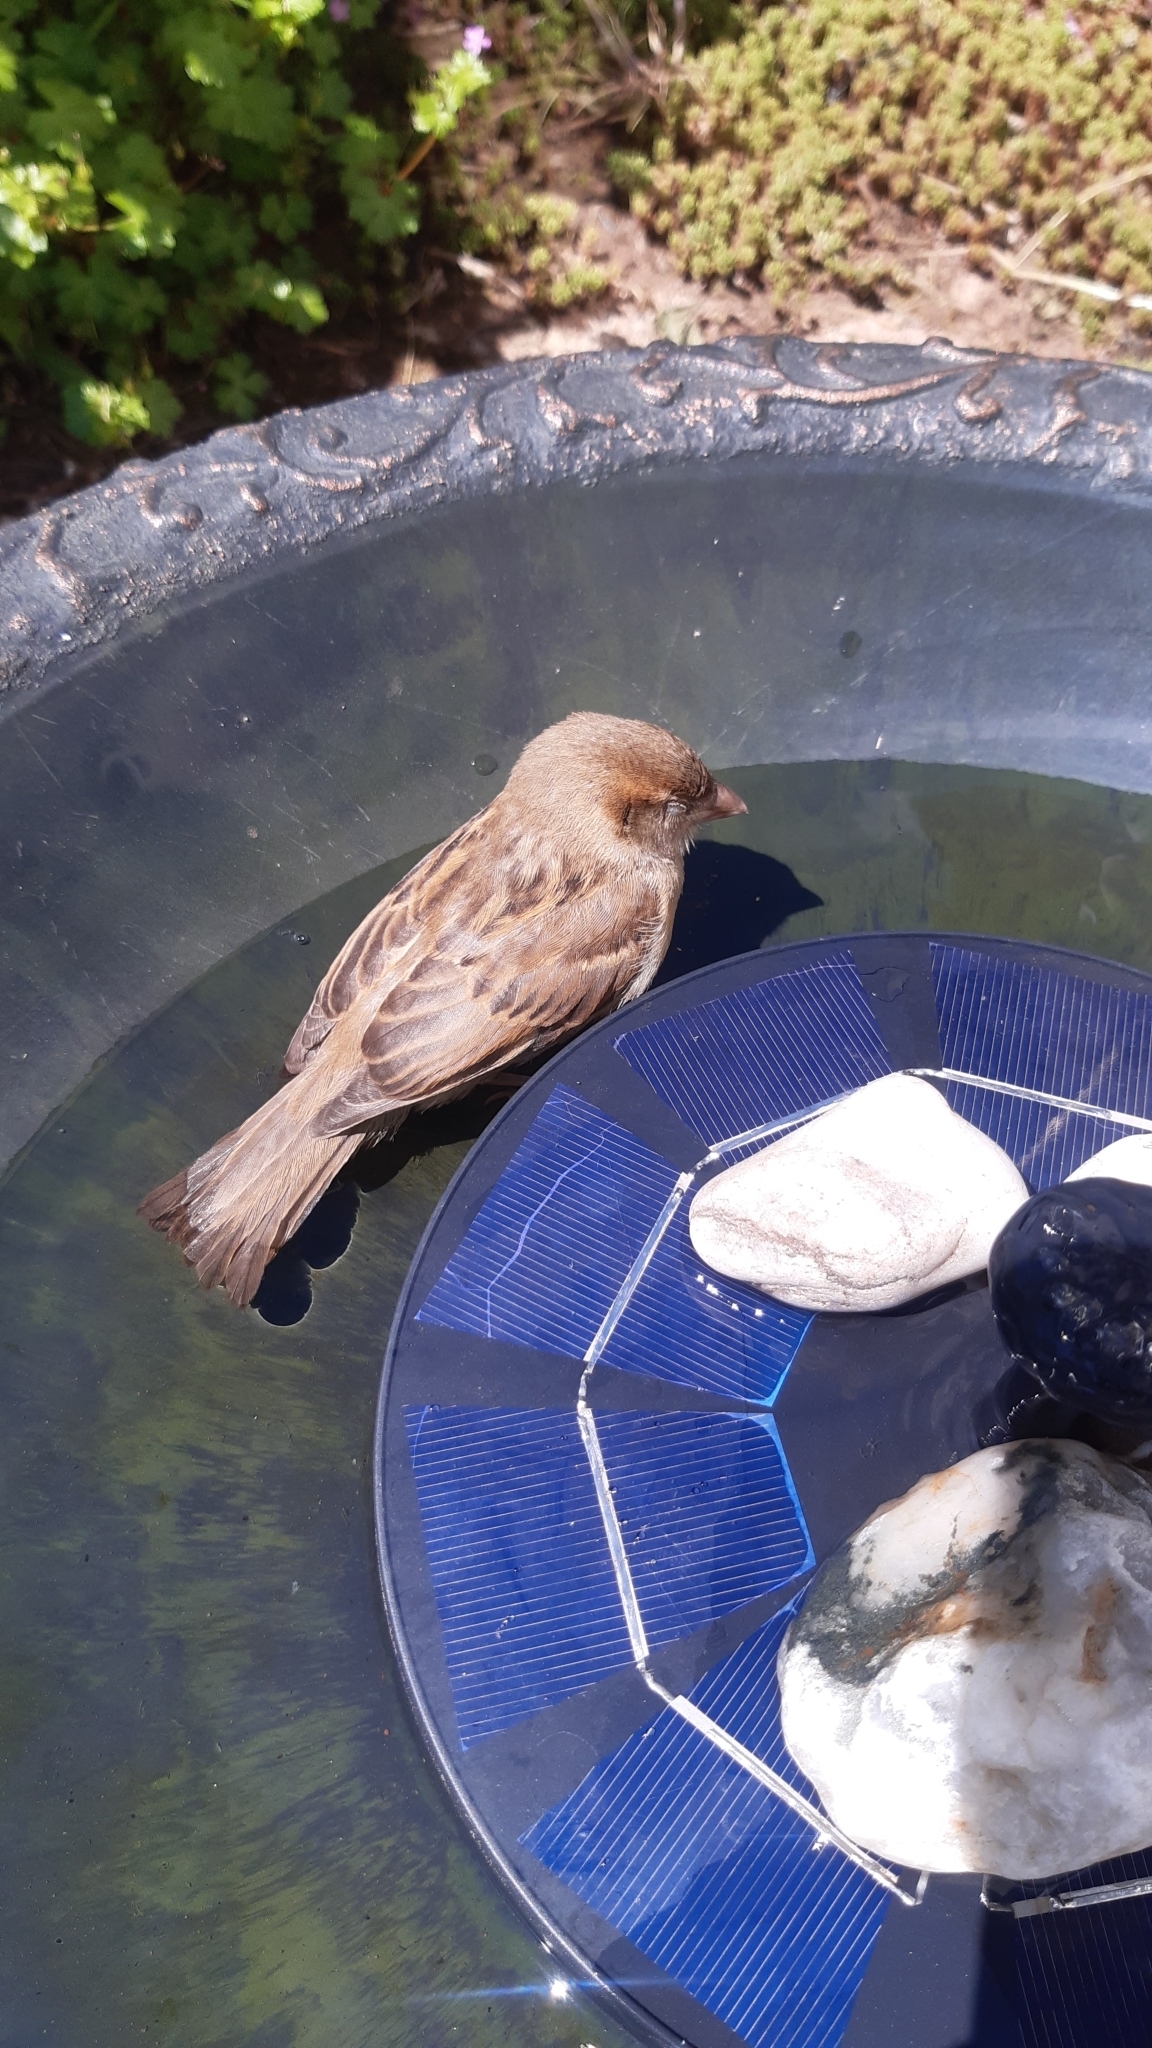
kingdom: Animalia
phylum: Chordata
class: Aves
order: Passeriformes
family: Passeridae
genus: Passer
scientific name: Passer domesticus
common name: House sparrow
